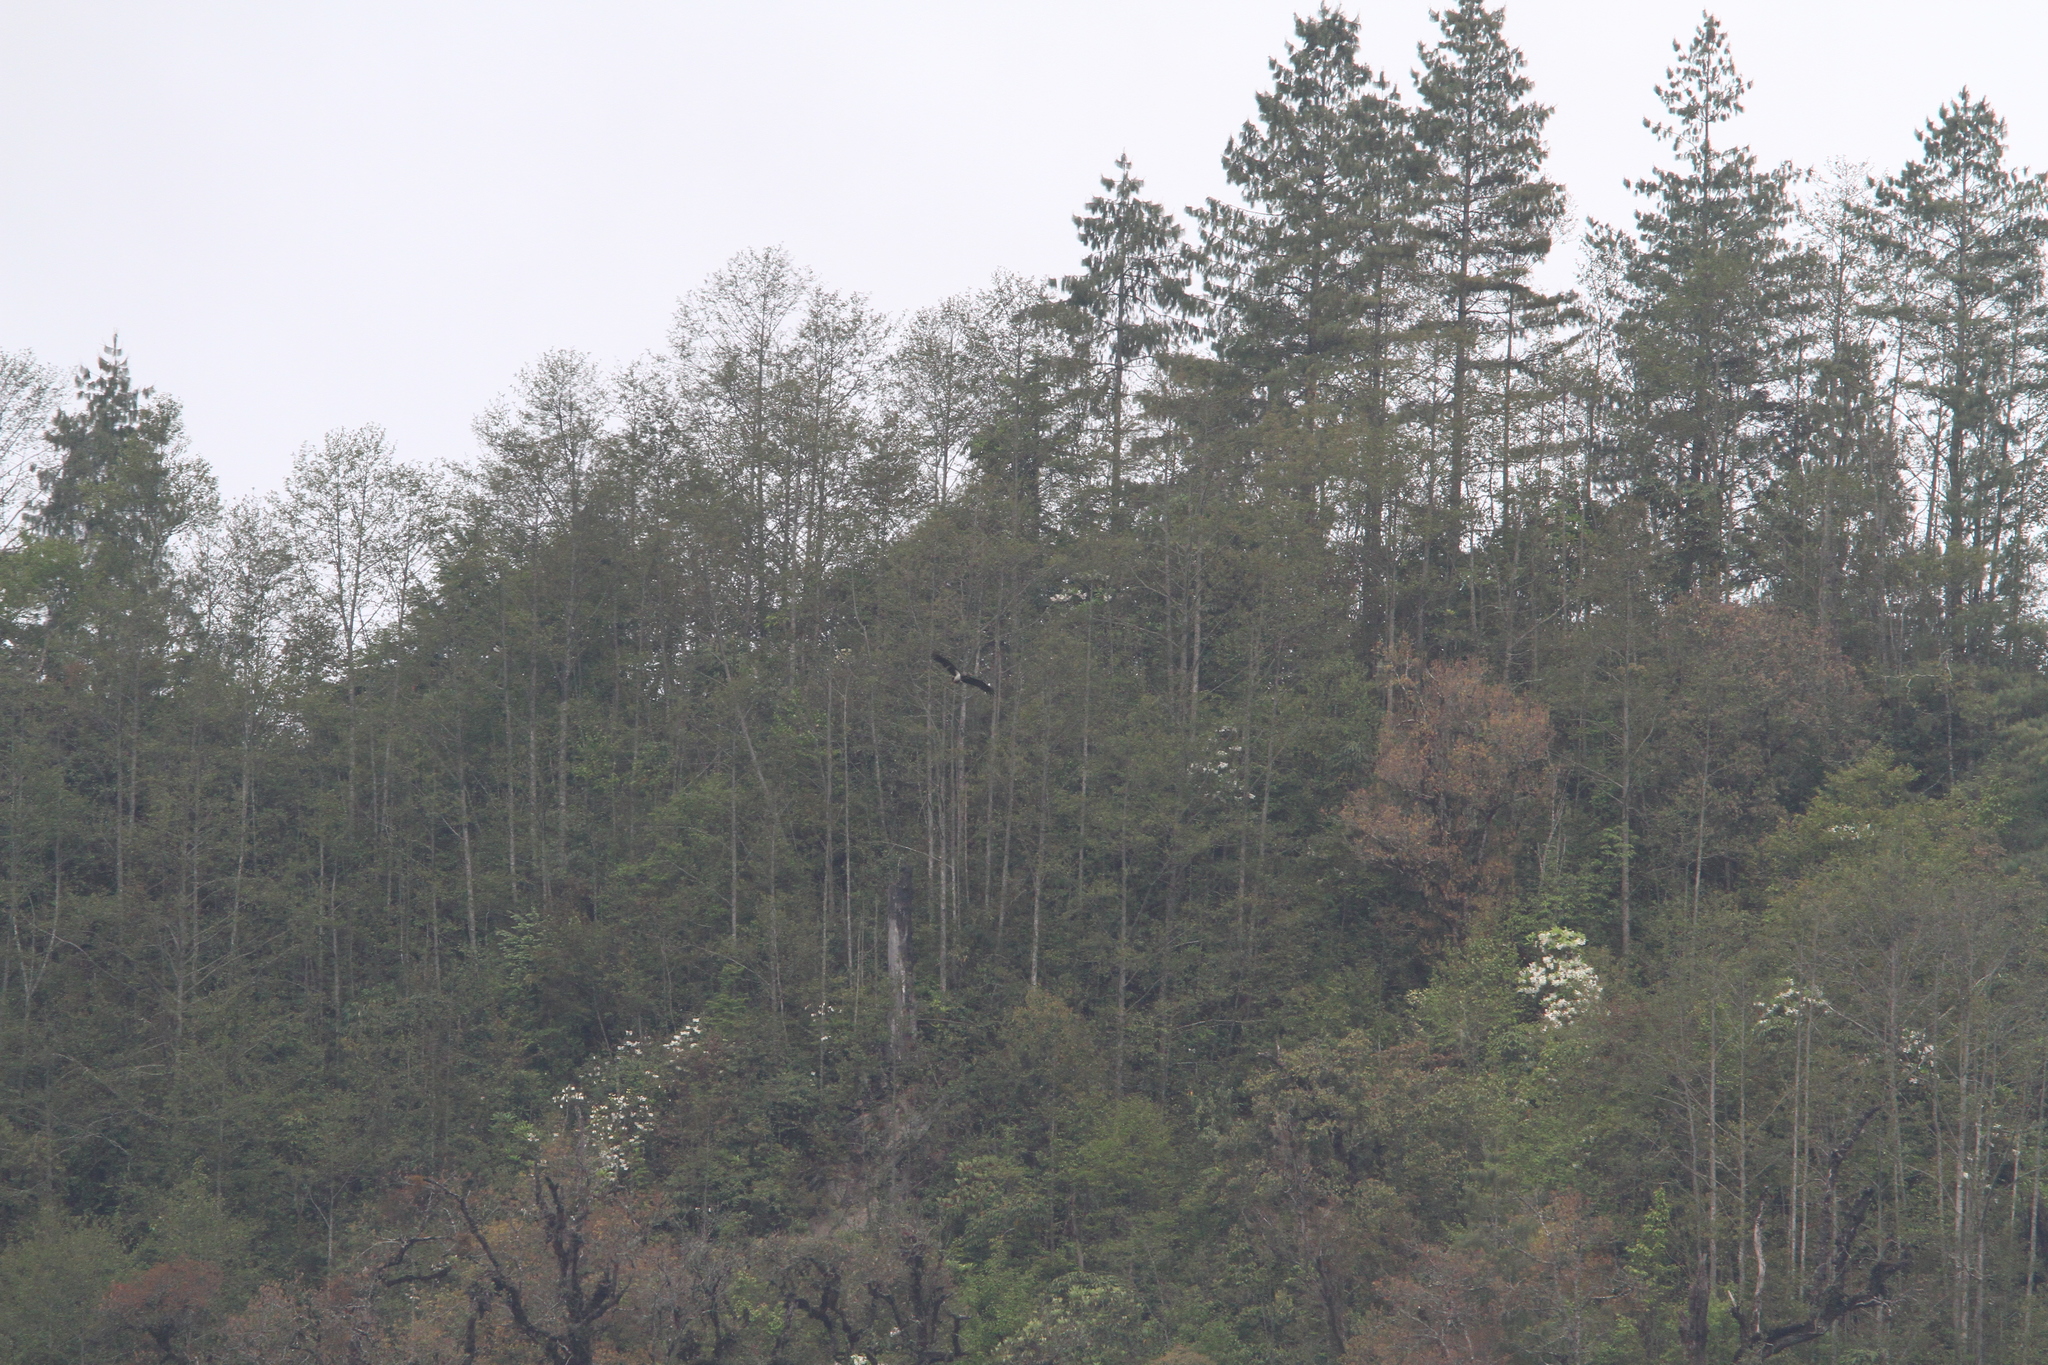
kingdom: Animalia
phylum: Chordata
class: Aves
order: Ciconiiformes
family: Ciconiidae
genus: Ciconia
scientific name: Ciconia nigra
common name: Black stork
